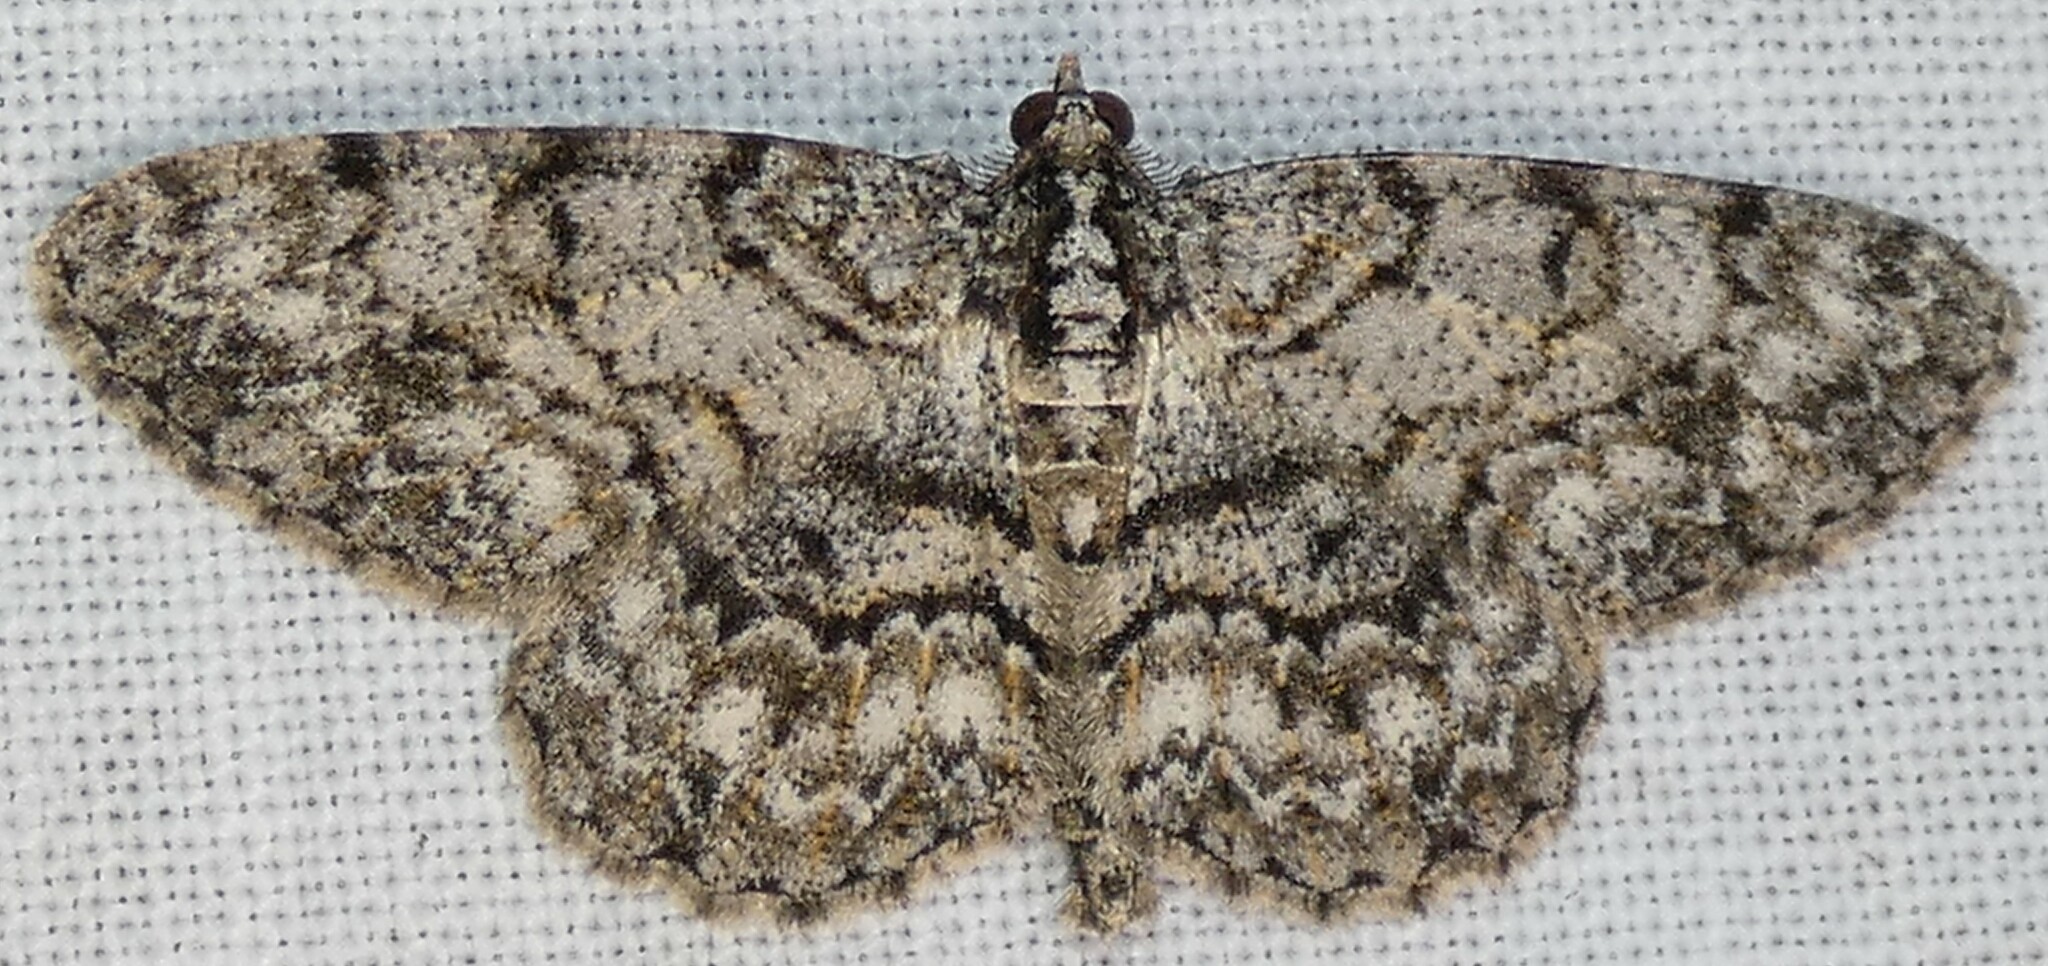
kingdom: Animalia
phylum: Arthropoda
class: Insecta
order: Lepidoptera
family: Geometridae
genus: Protoboarmia
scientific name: Protoboarmia porcelaria
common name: Porcelain gray
